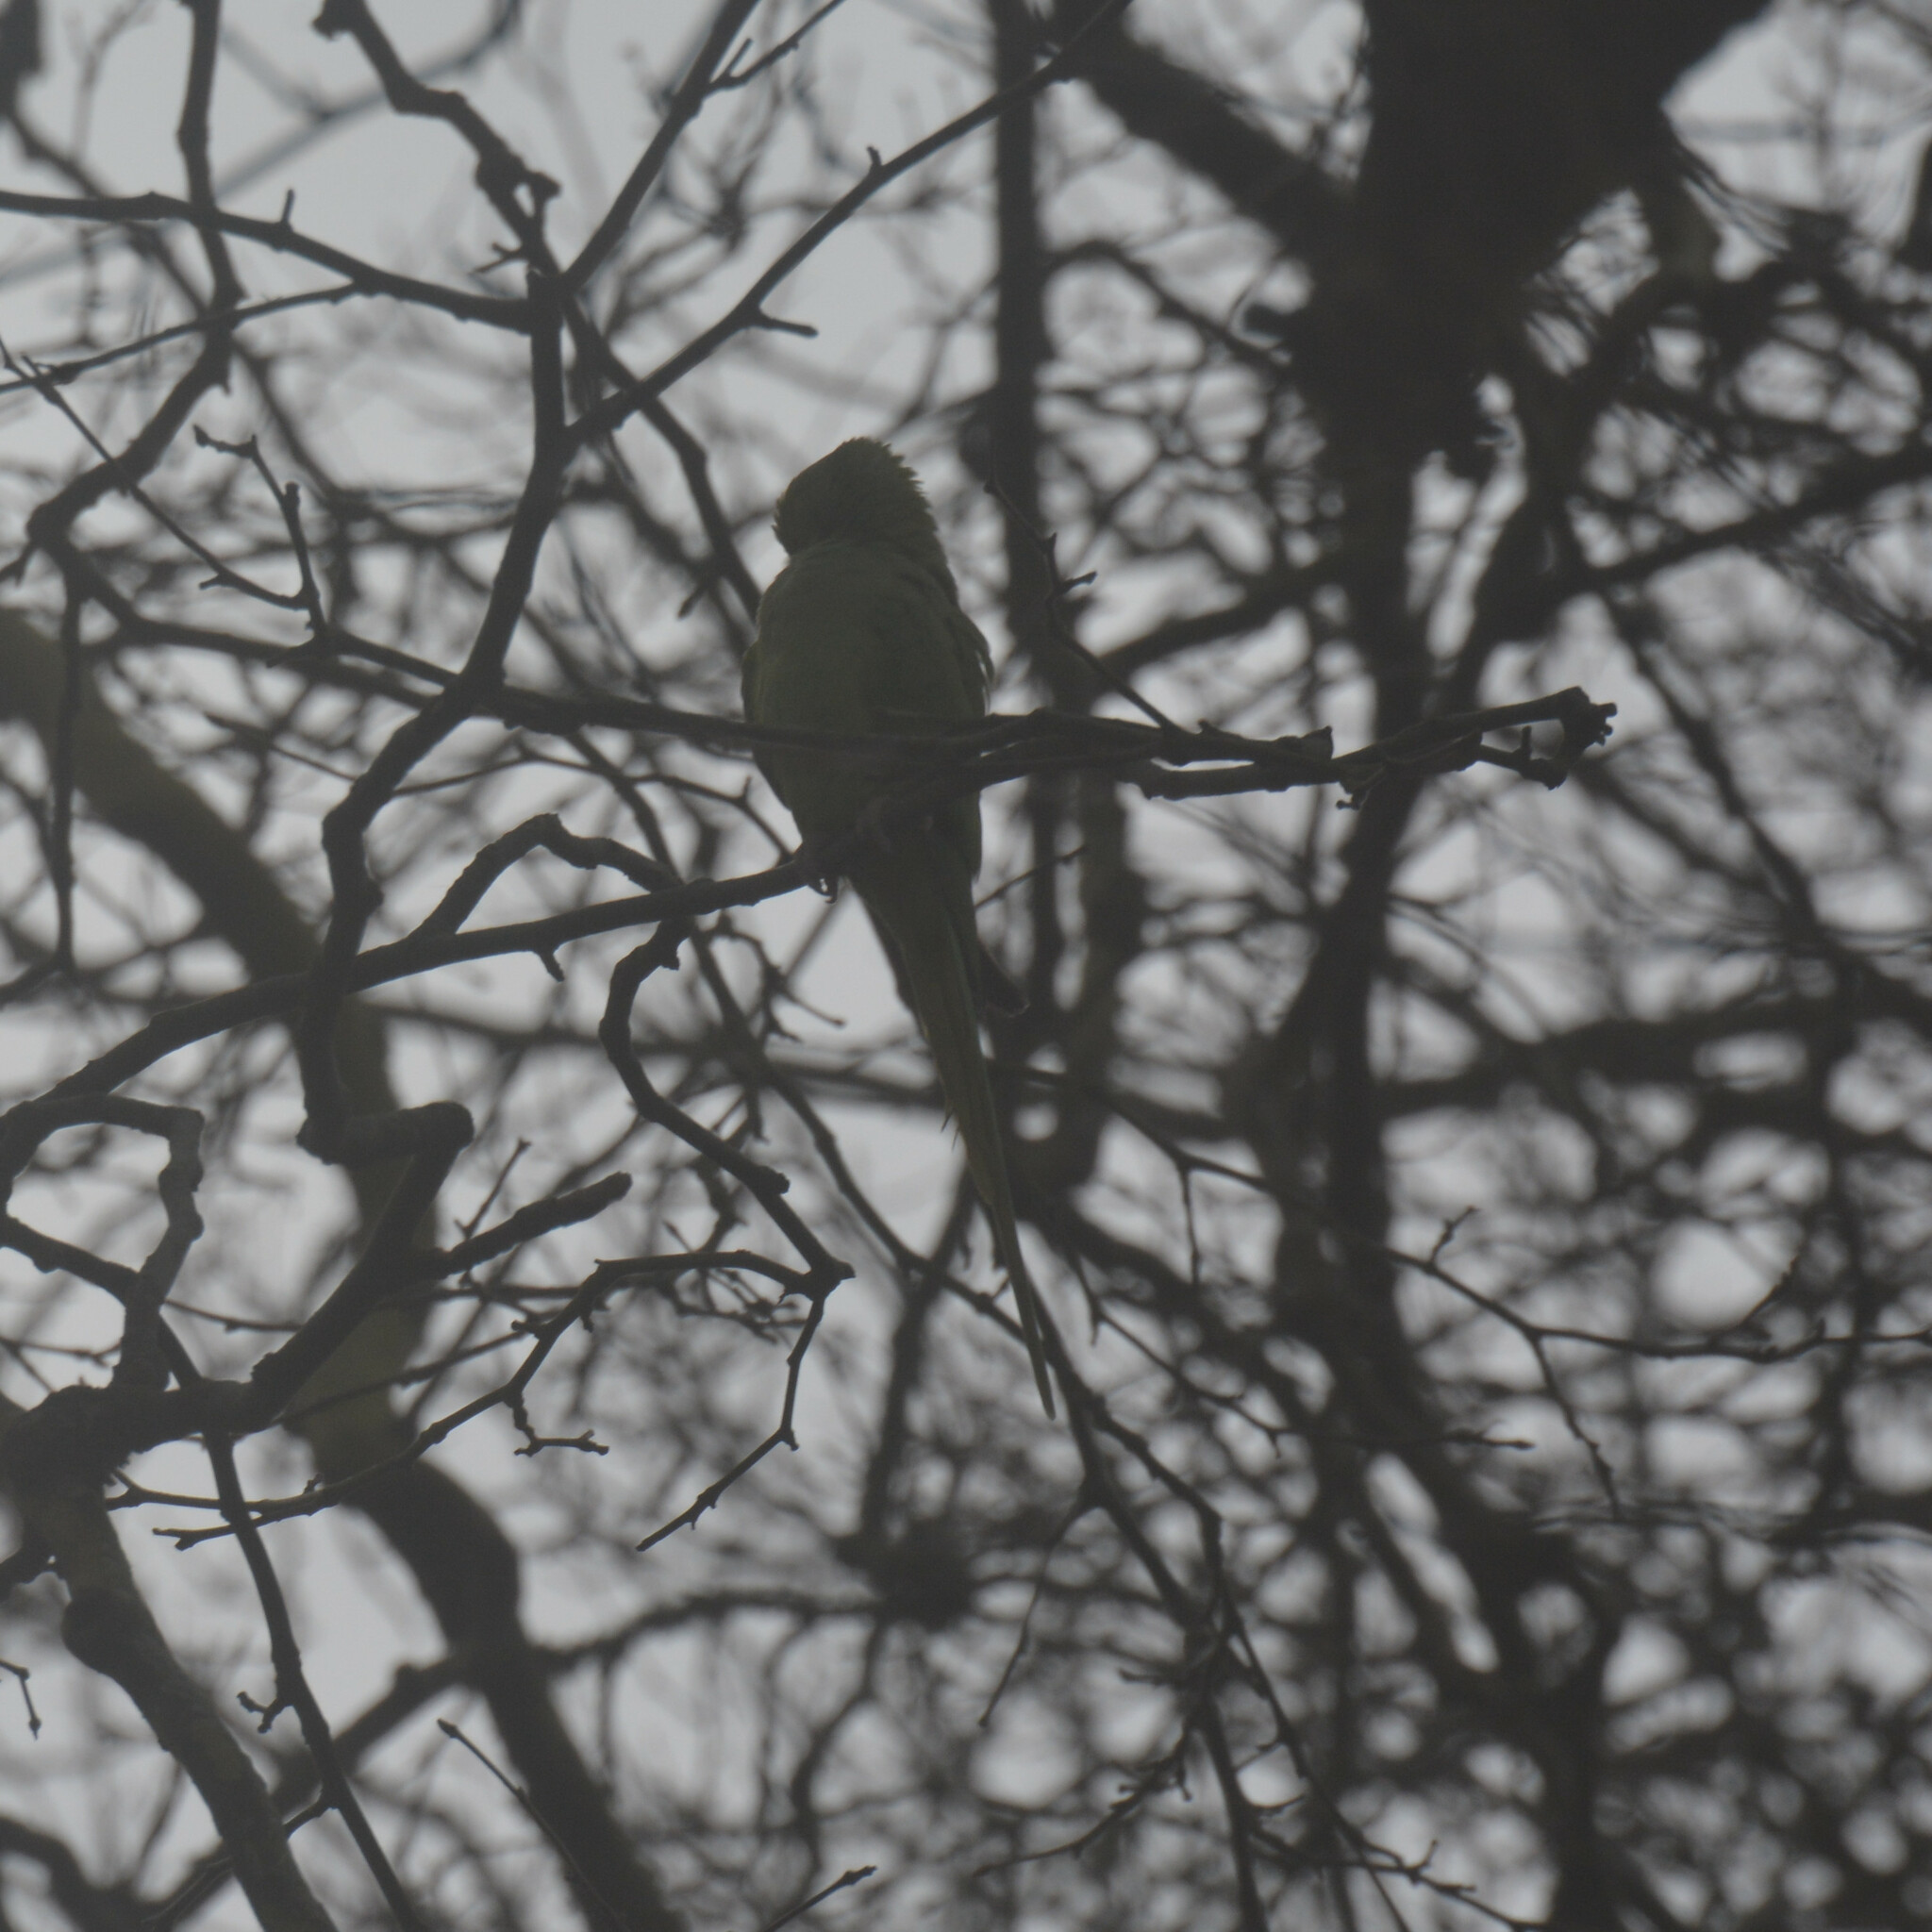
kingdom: Animalia
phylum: Chordata
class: Aves
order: Psittaciformes
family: Psittacidae
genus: Psittacula
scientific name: Psittacula krameri
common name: Rose-ringed parakeet
